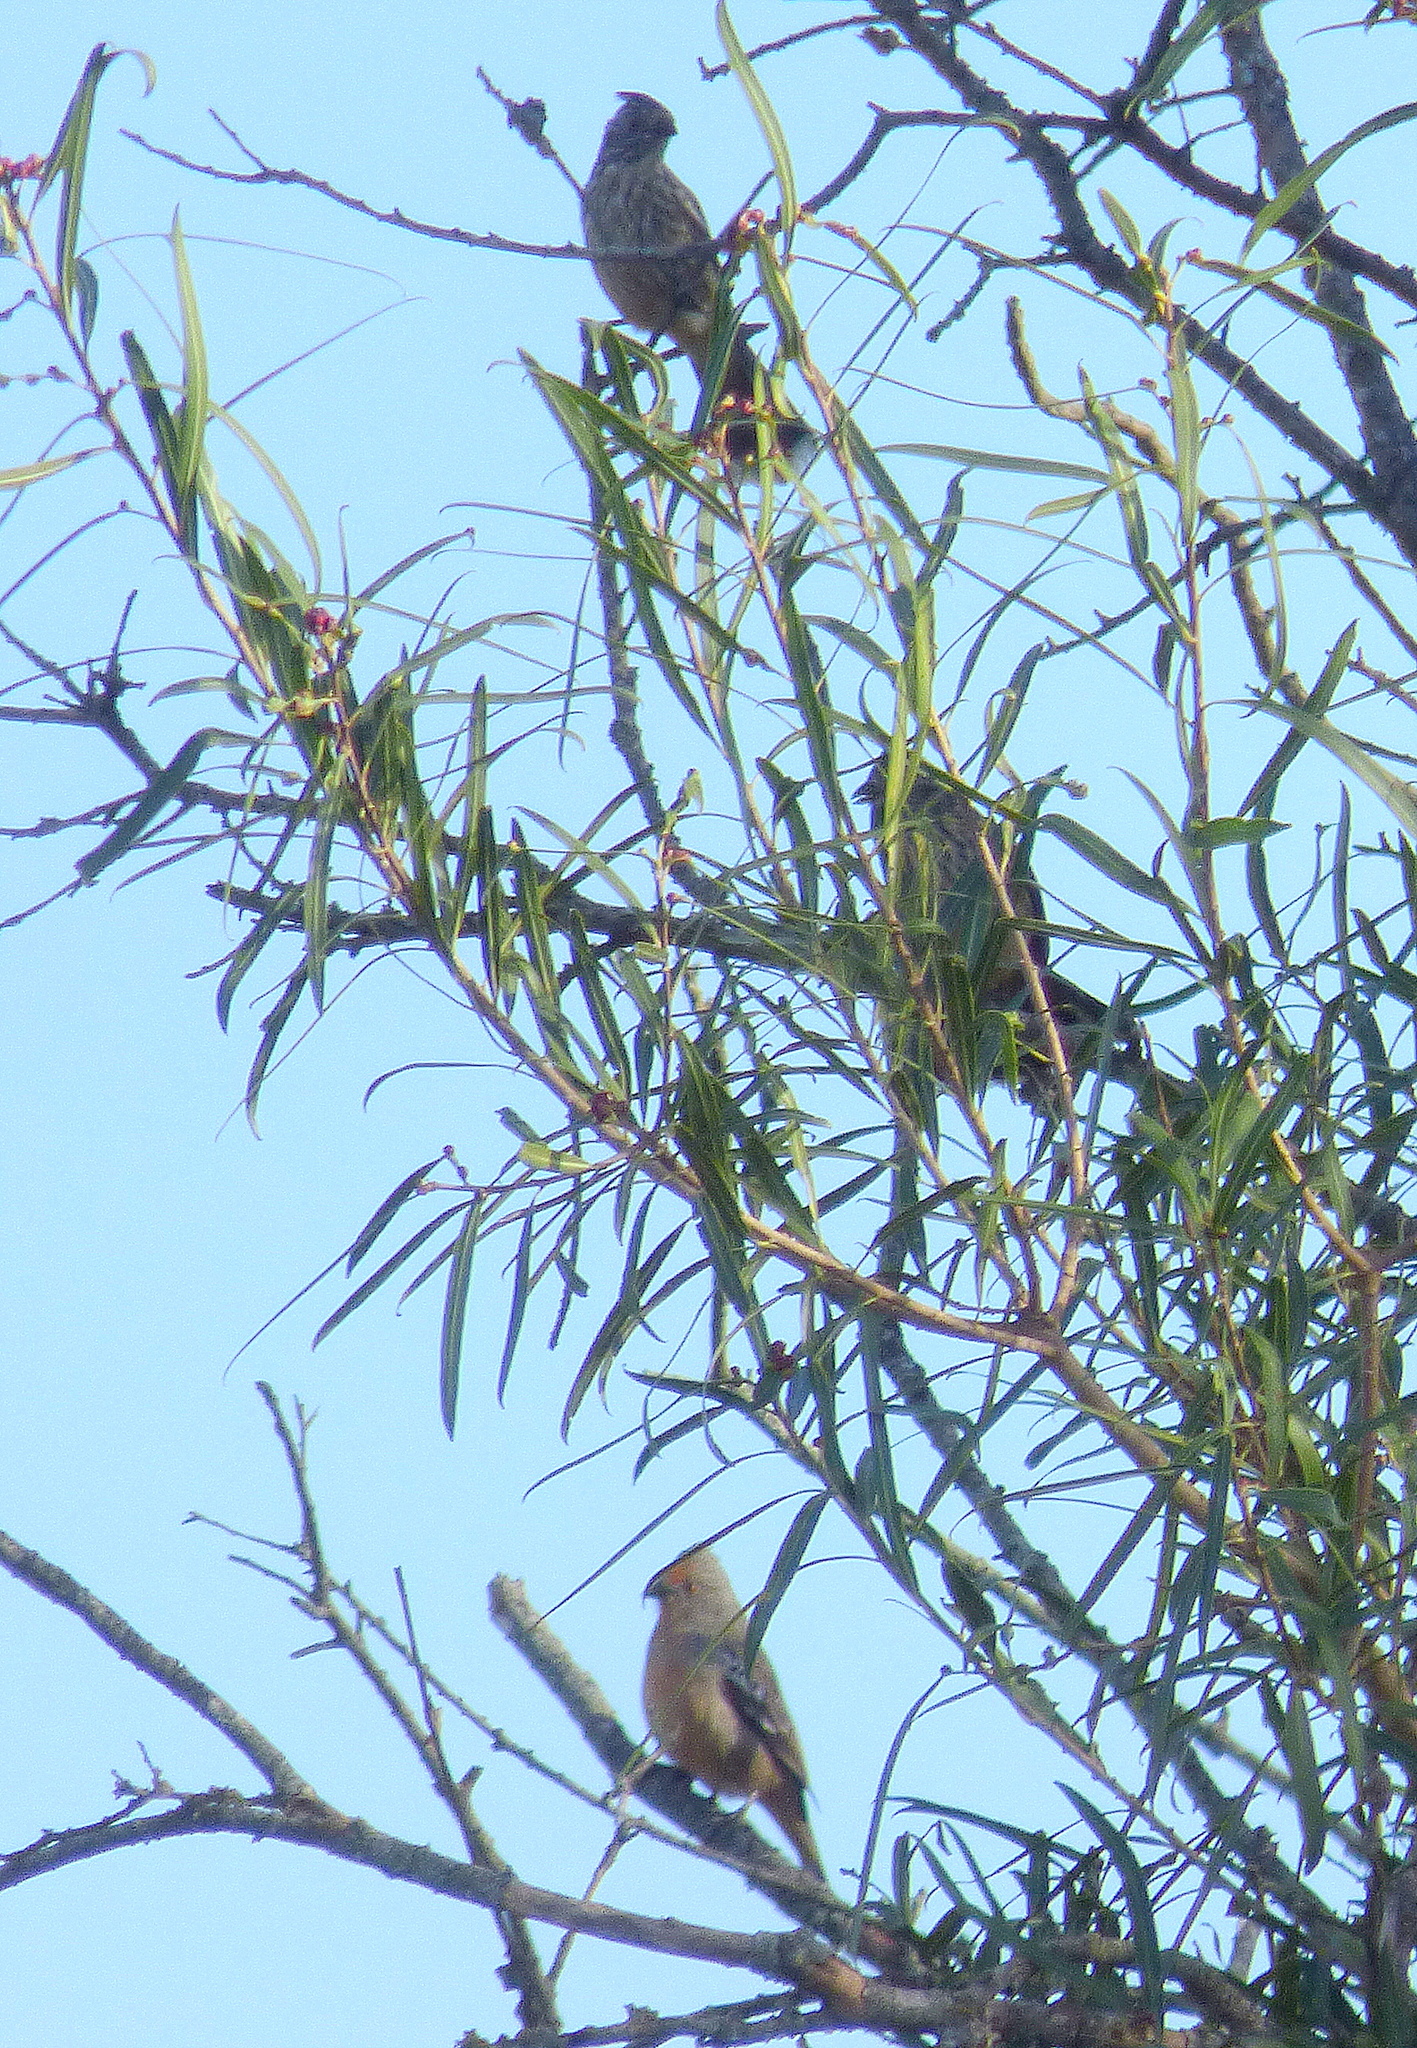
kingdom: Animalia
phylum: Chordata
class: Aves
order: Passeriformes
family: Cotingidae
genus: Phytotoma
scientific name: Phytotoma rutila
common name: White-tipped plantcutter
